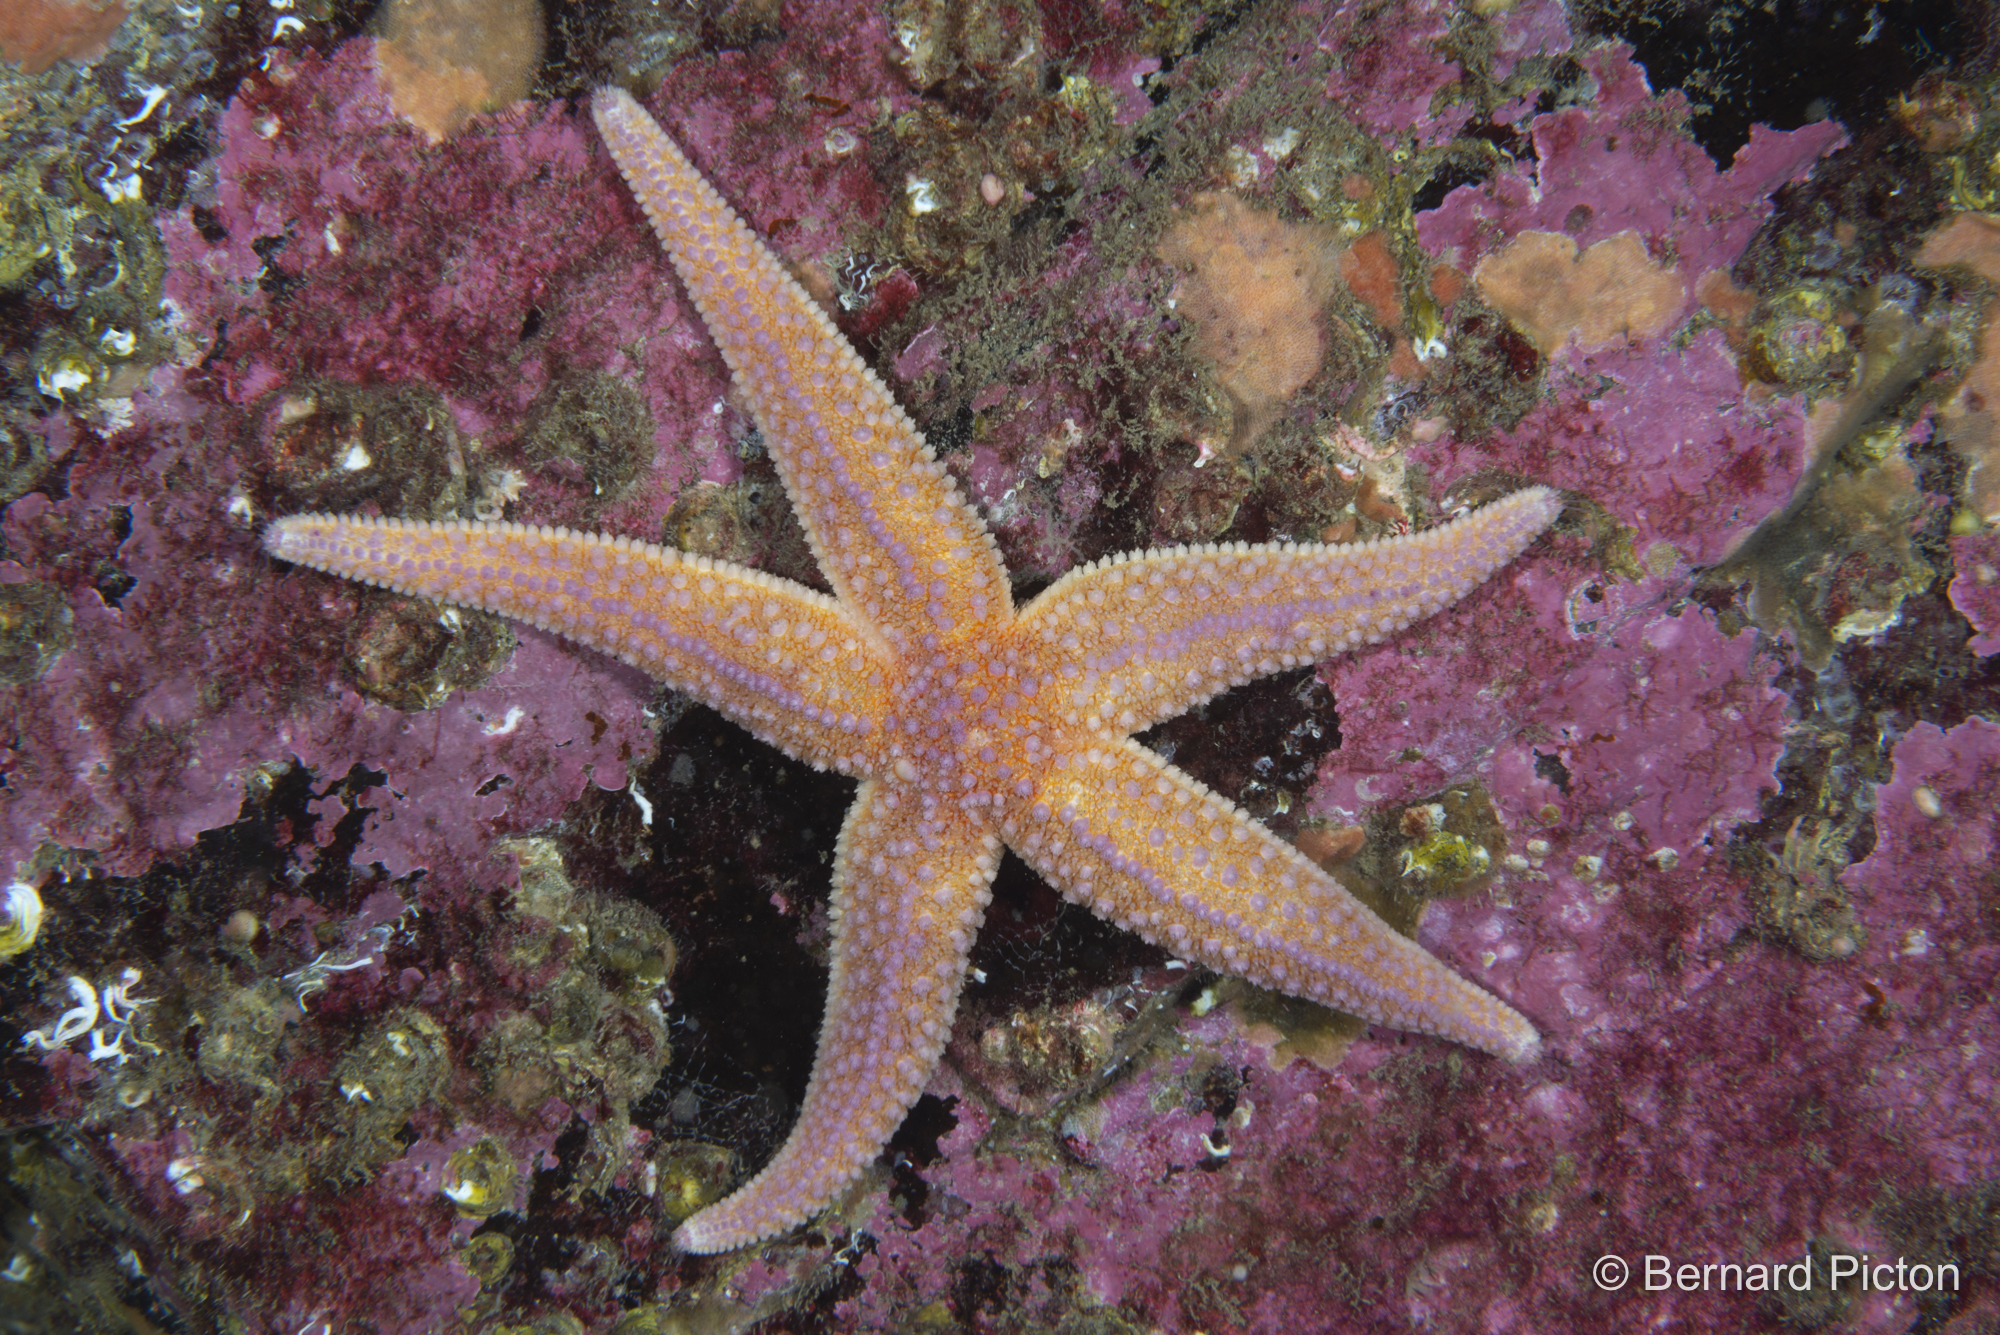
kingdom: Animalia
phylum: Echinodermata
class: Asteroidea
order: Forcipulatida
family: Asteriidae
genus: Asterias
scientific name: Asterias rubens
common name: Common starfish
